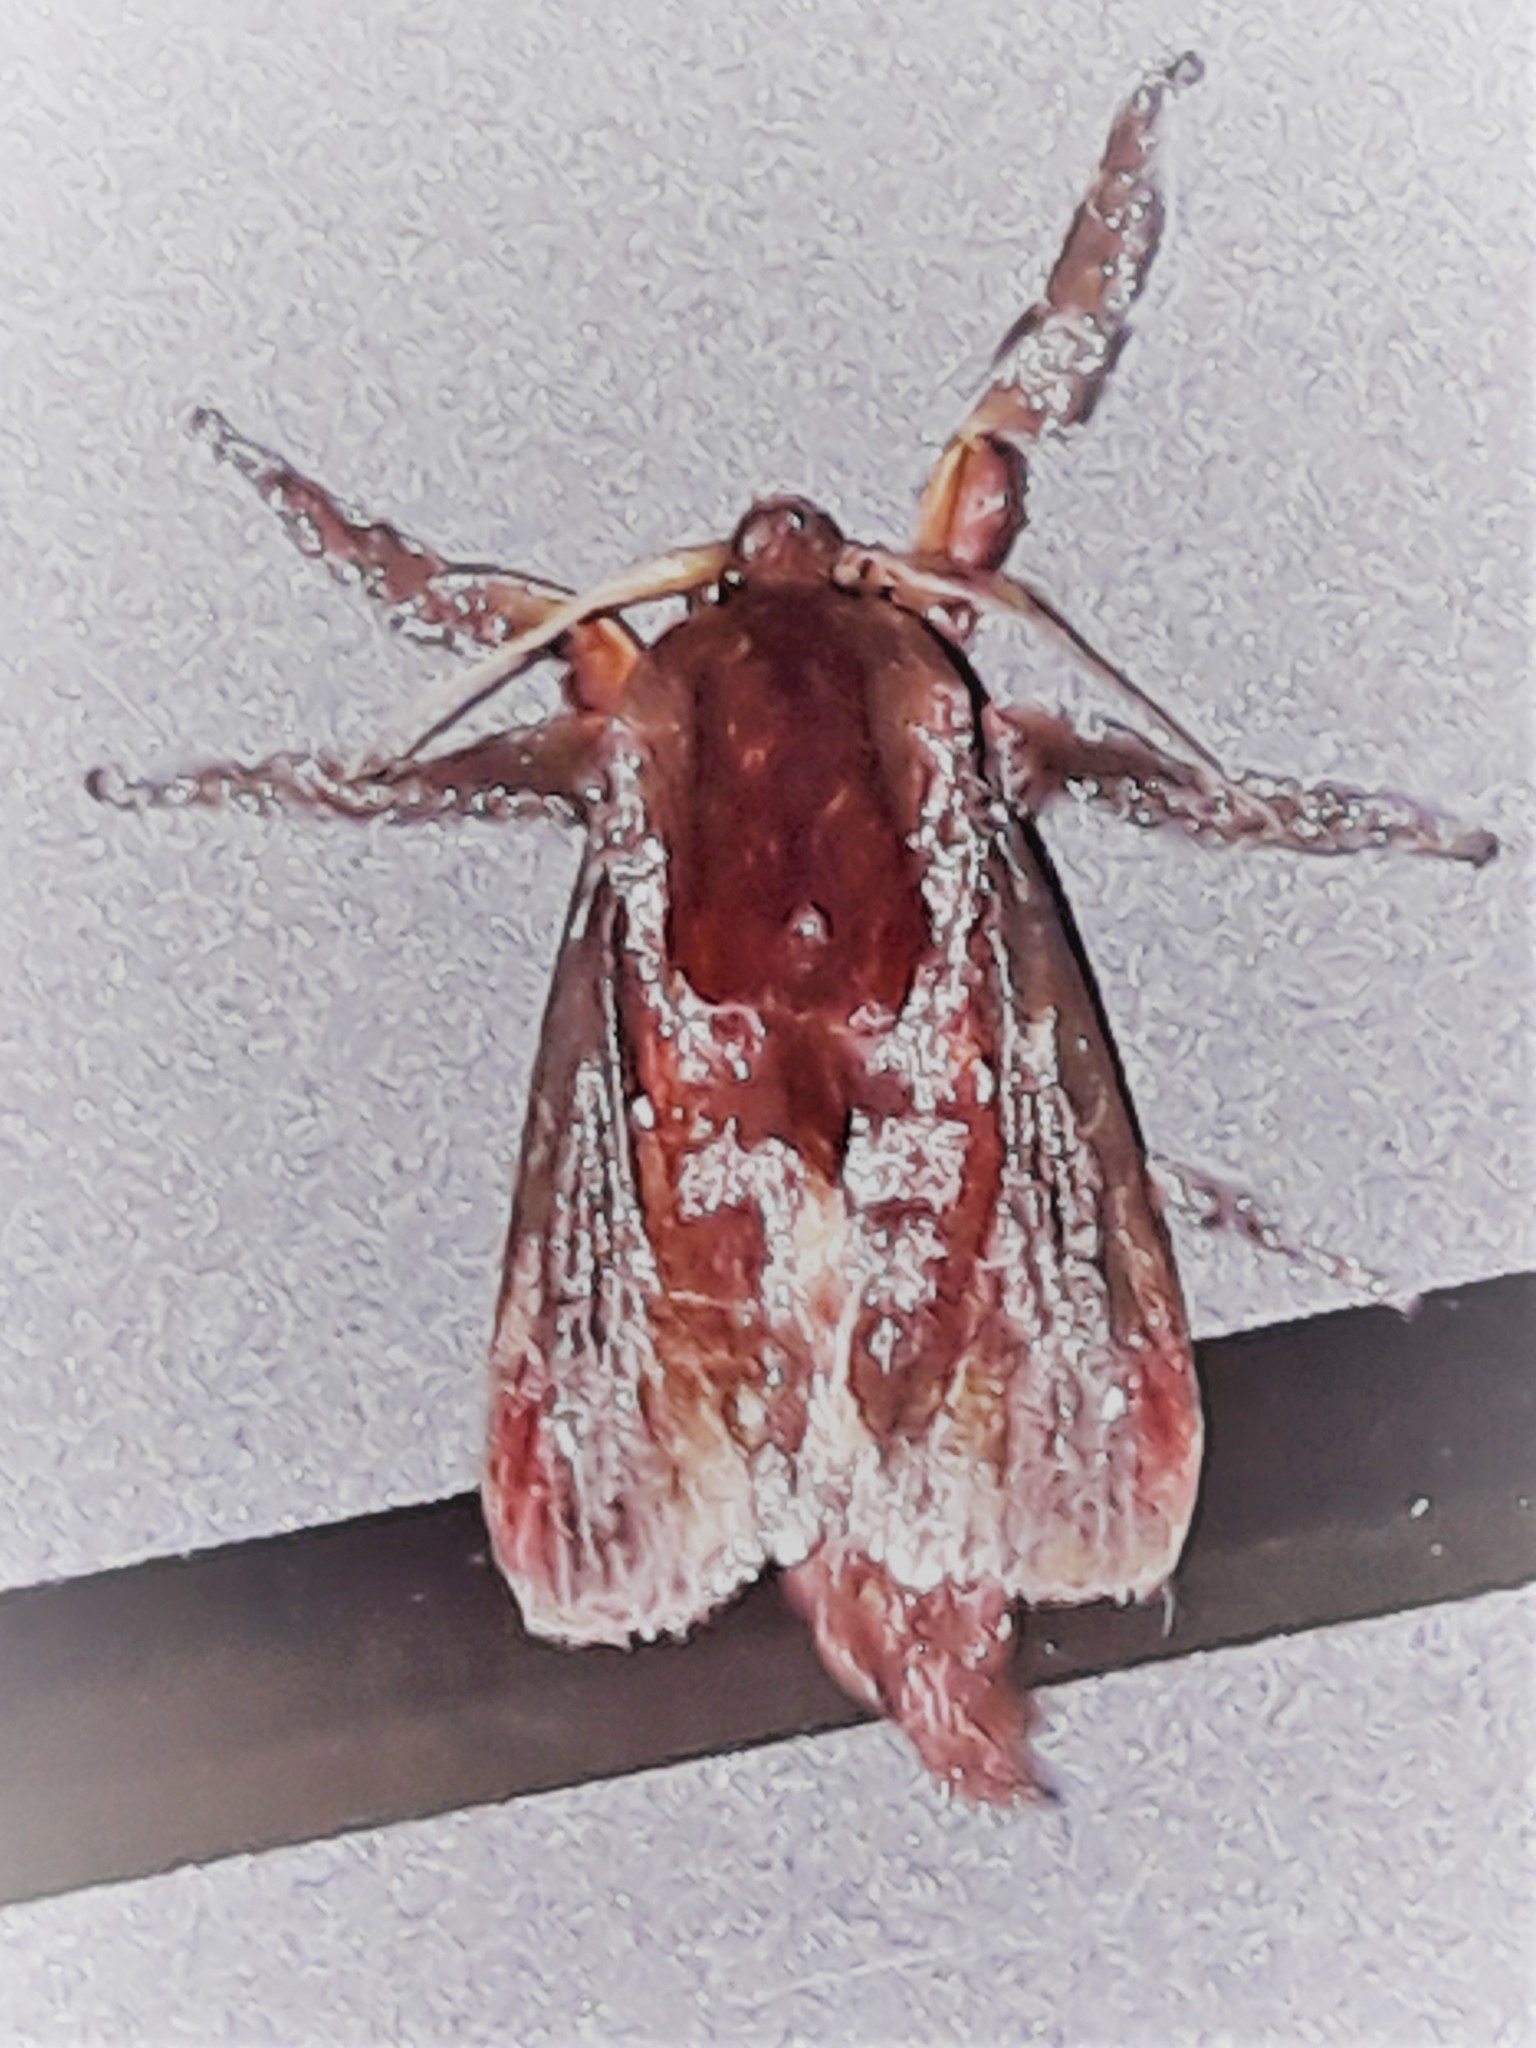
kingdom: Animalia
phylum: Arthropoda
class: Insecta
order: Lepidoptera
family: Limacodidae
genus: Acharia
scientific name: Acharia ophelians
